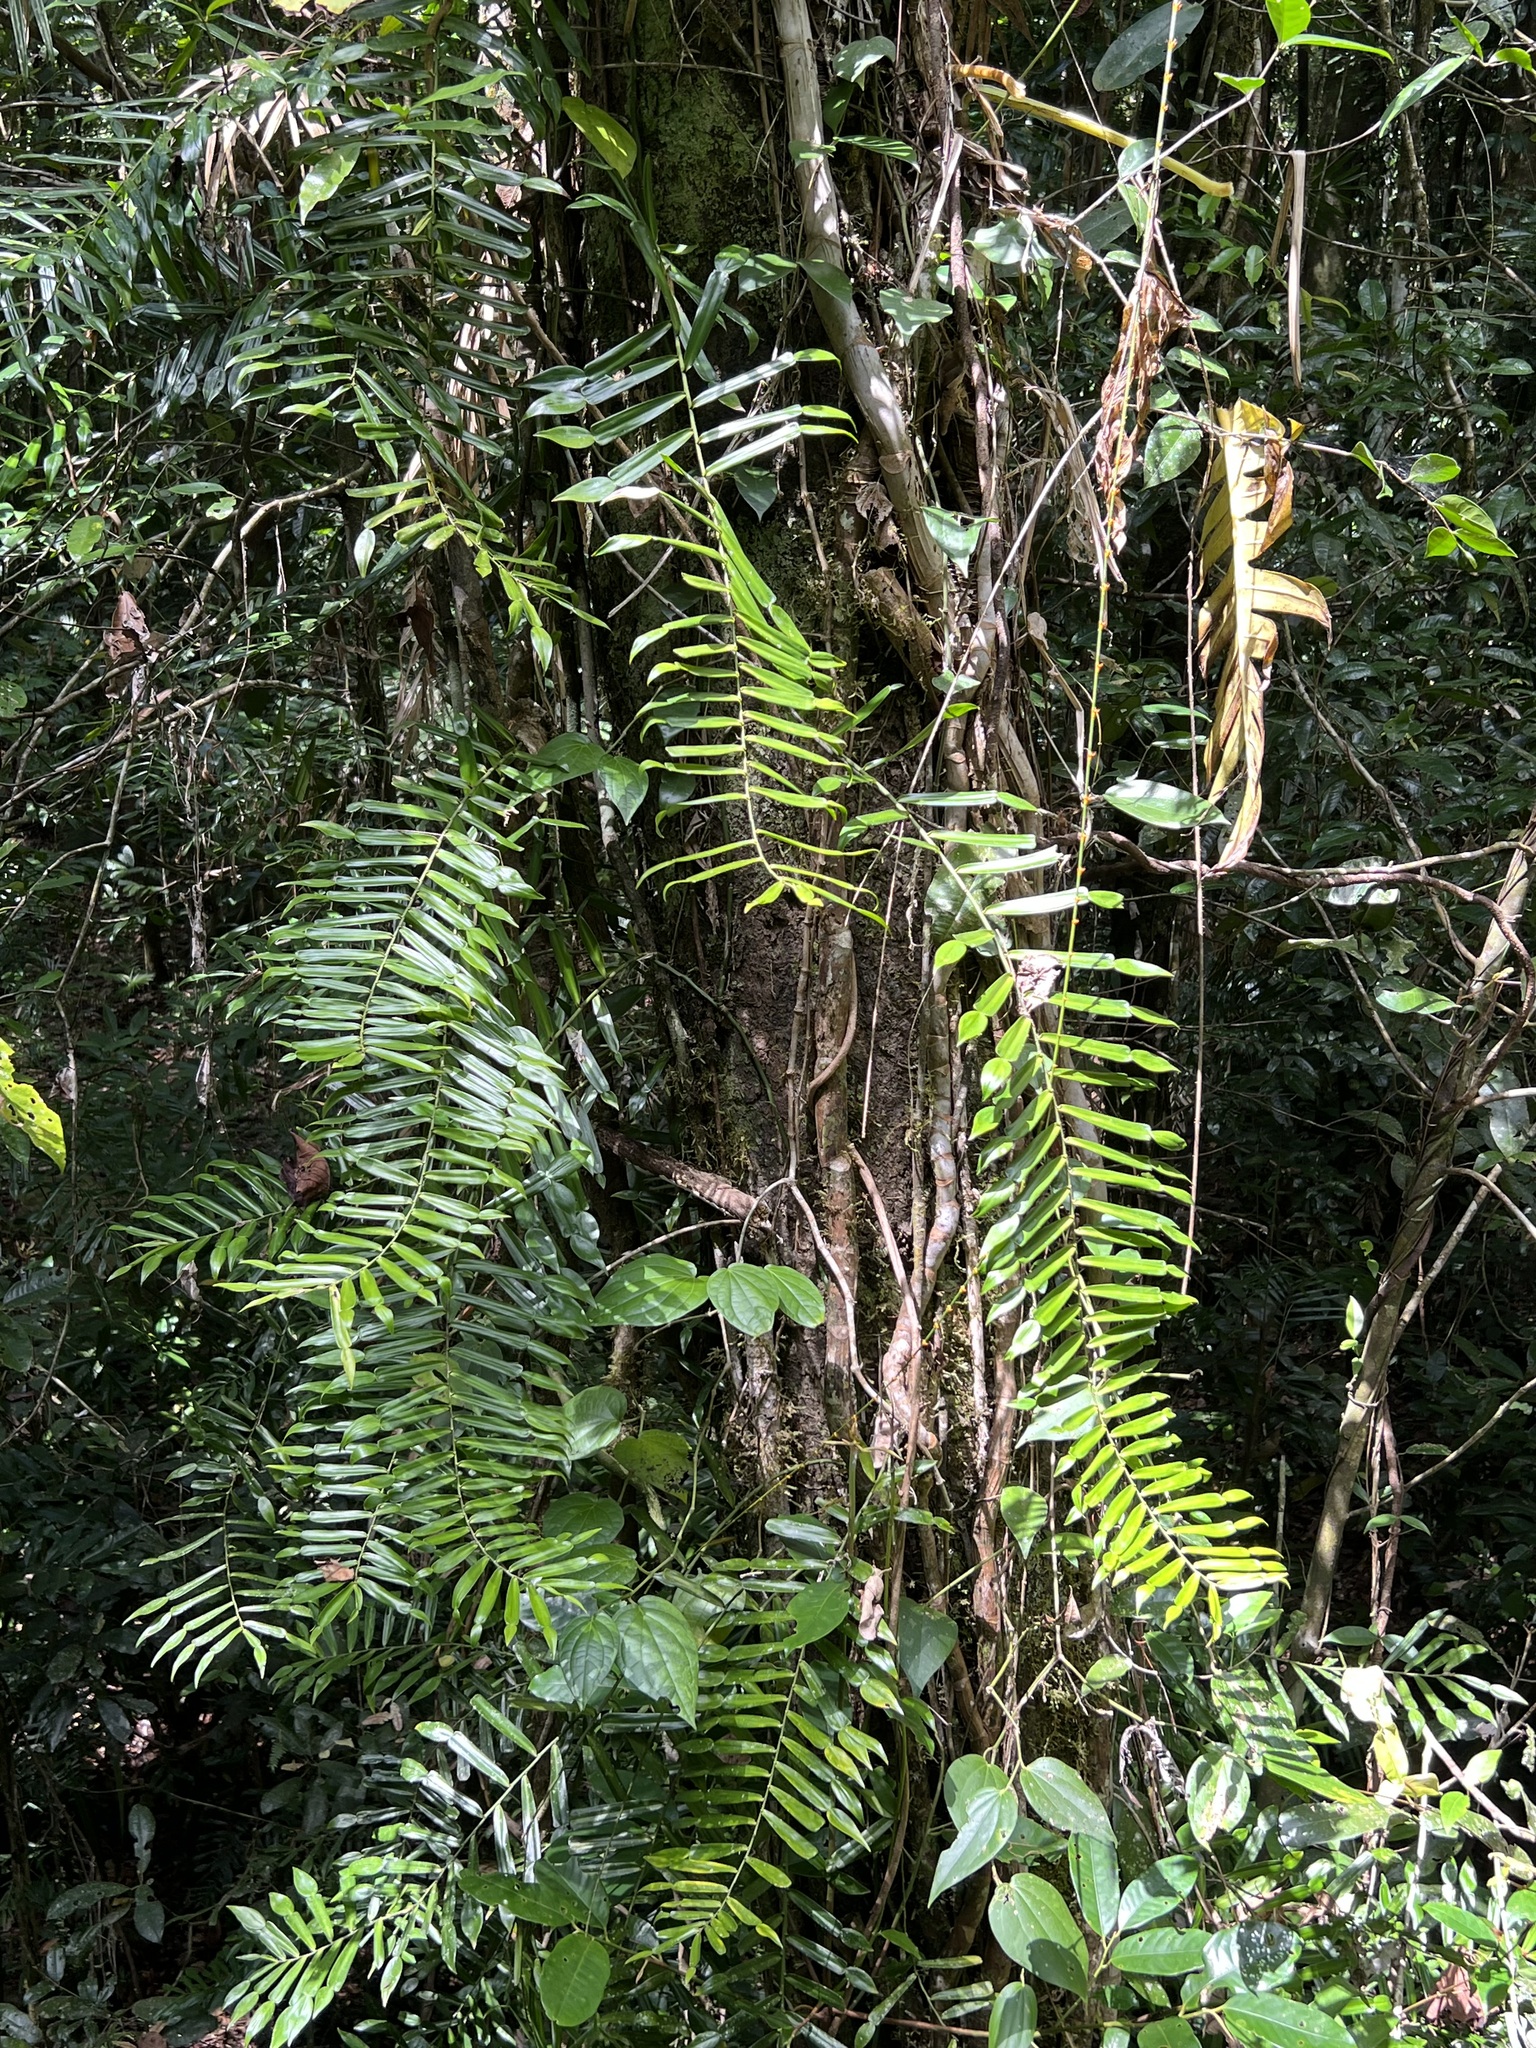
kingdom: Plantae
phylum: Tracheophyta
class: Liliopsida
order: Alismatales
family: Araceae
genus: Pothos
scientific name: Pothos longipes
